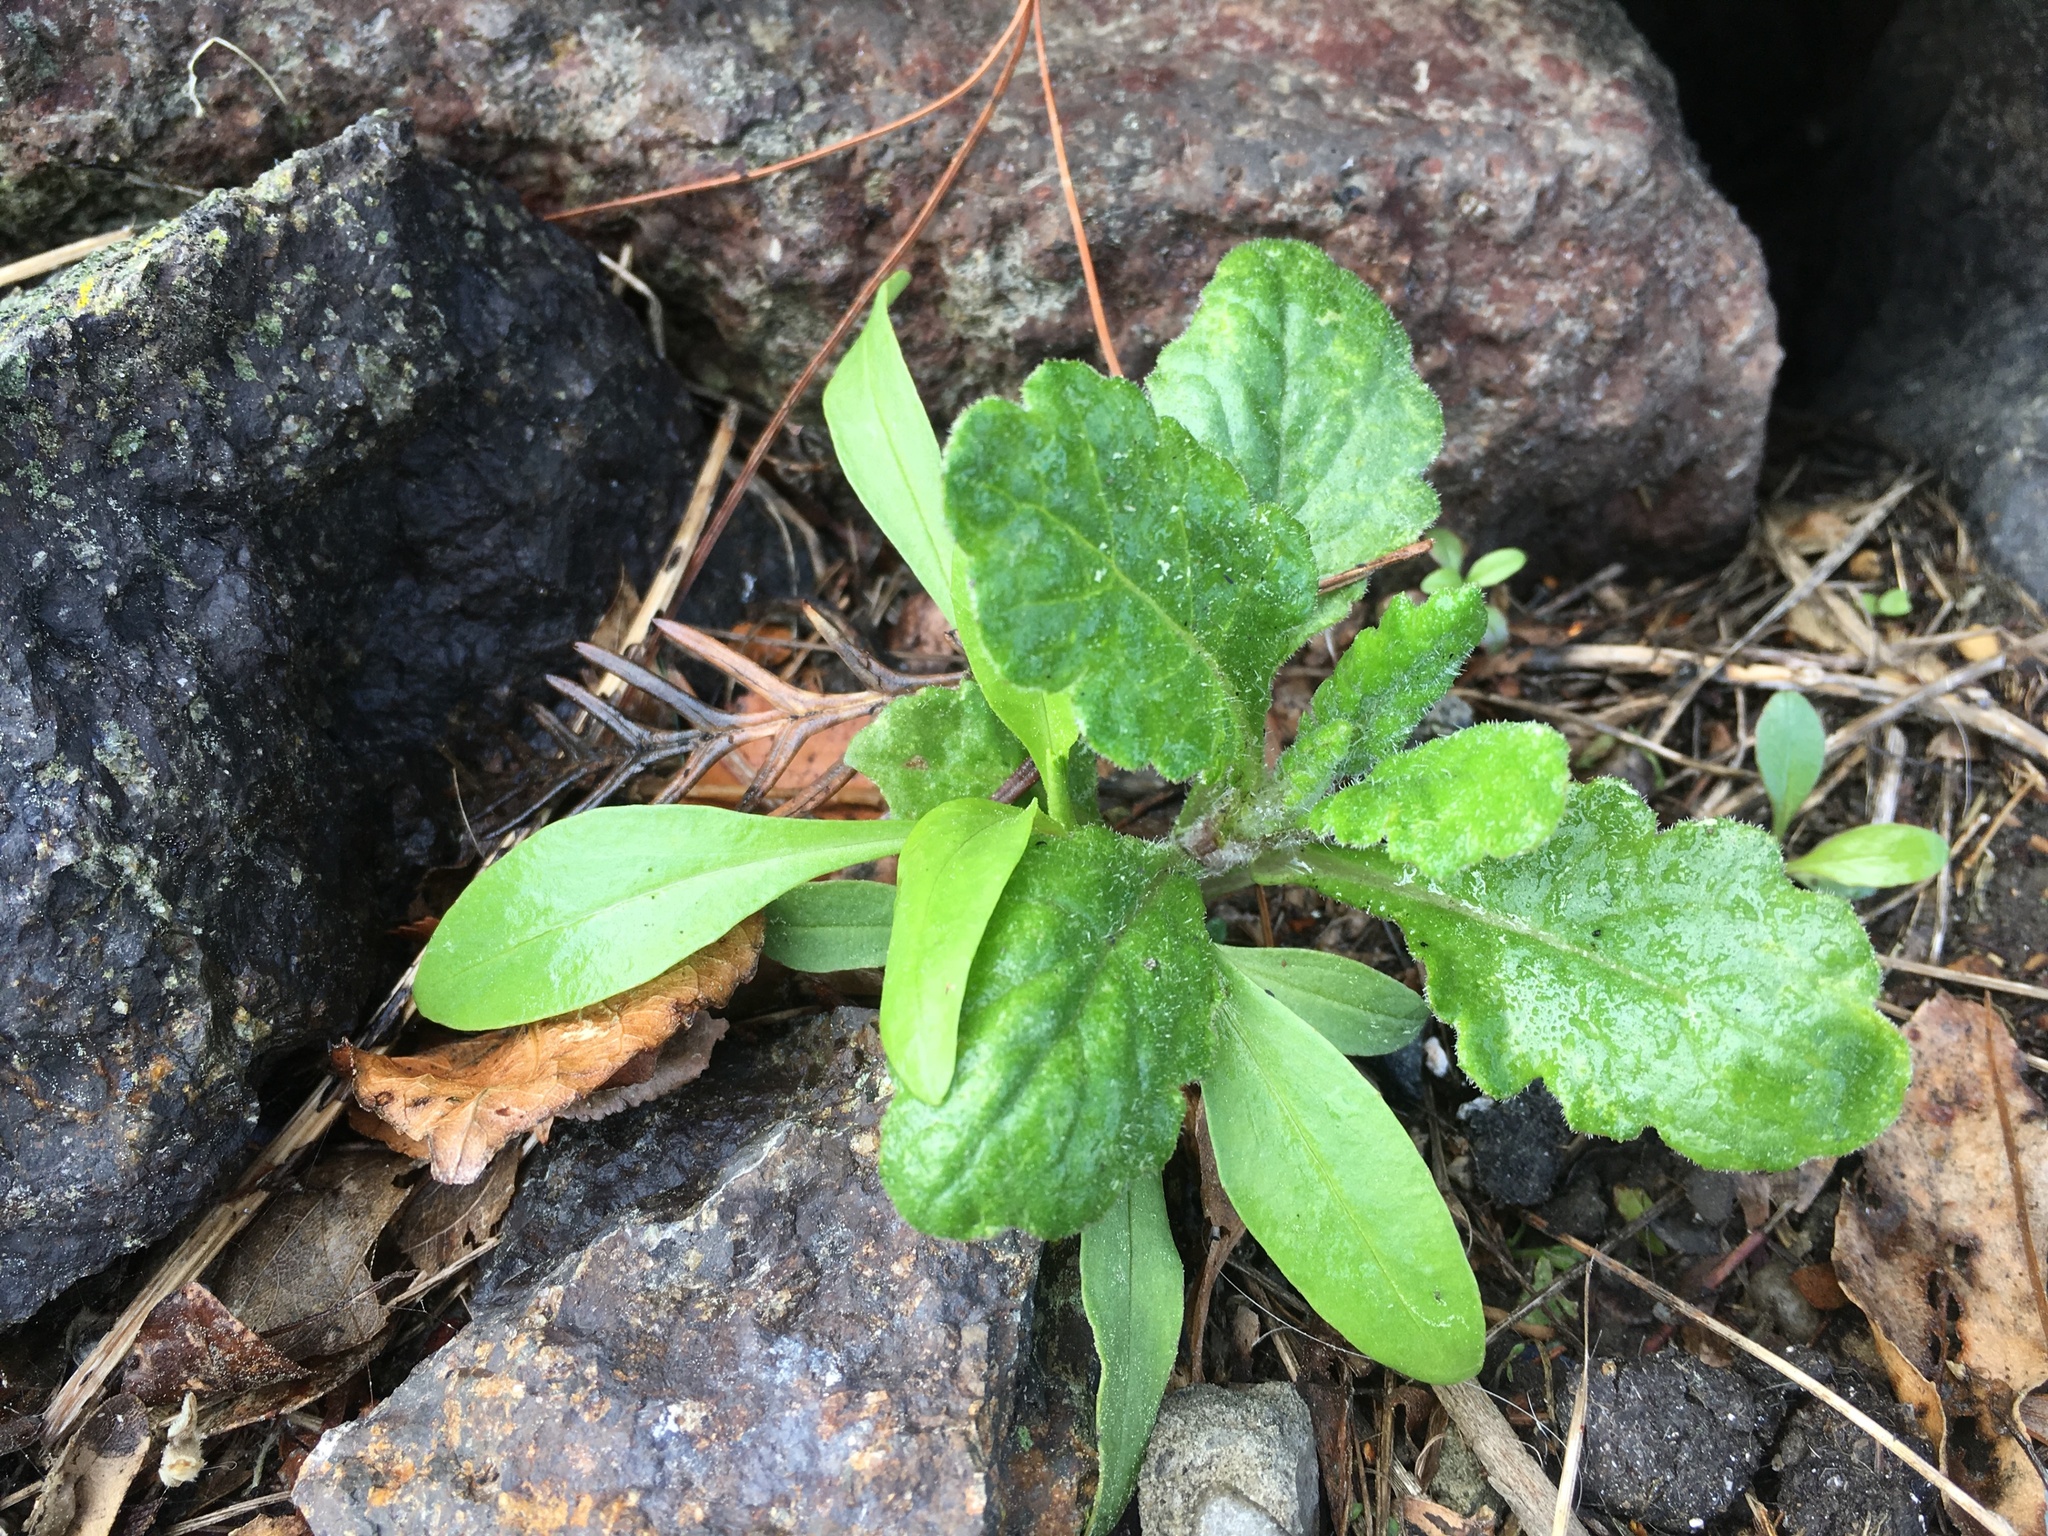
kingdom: Plantae
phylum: Tracheophyta
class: Magnoliopsida
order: Asterales
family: Asteraceae
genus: Senecio
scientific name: Senecio glomeratus
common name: Cutleaf burnweed
